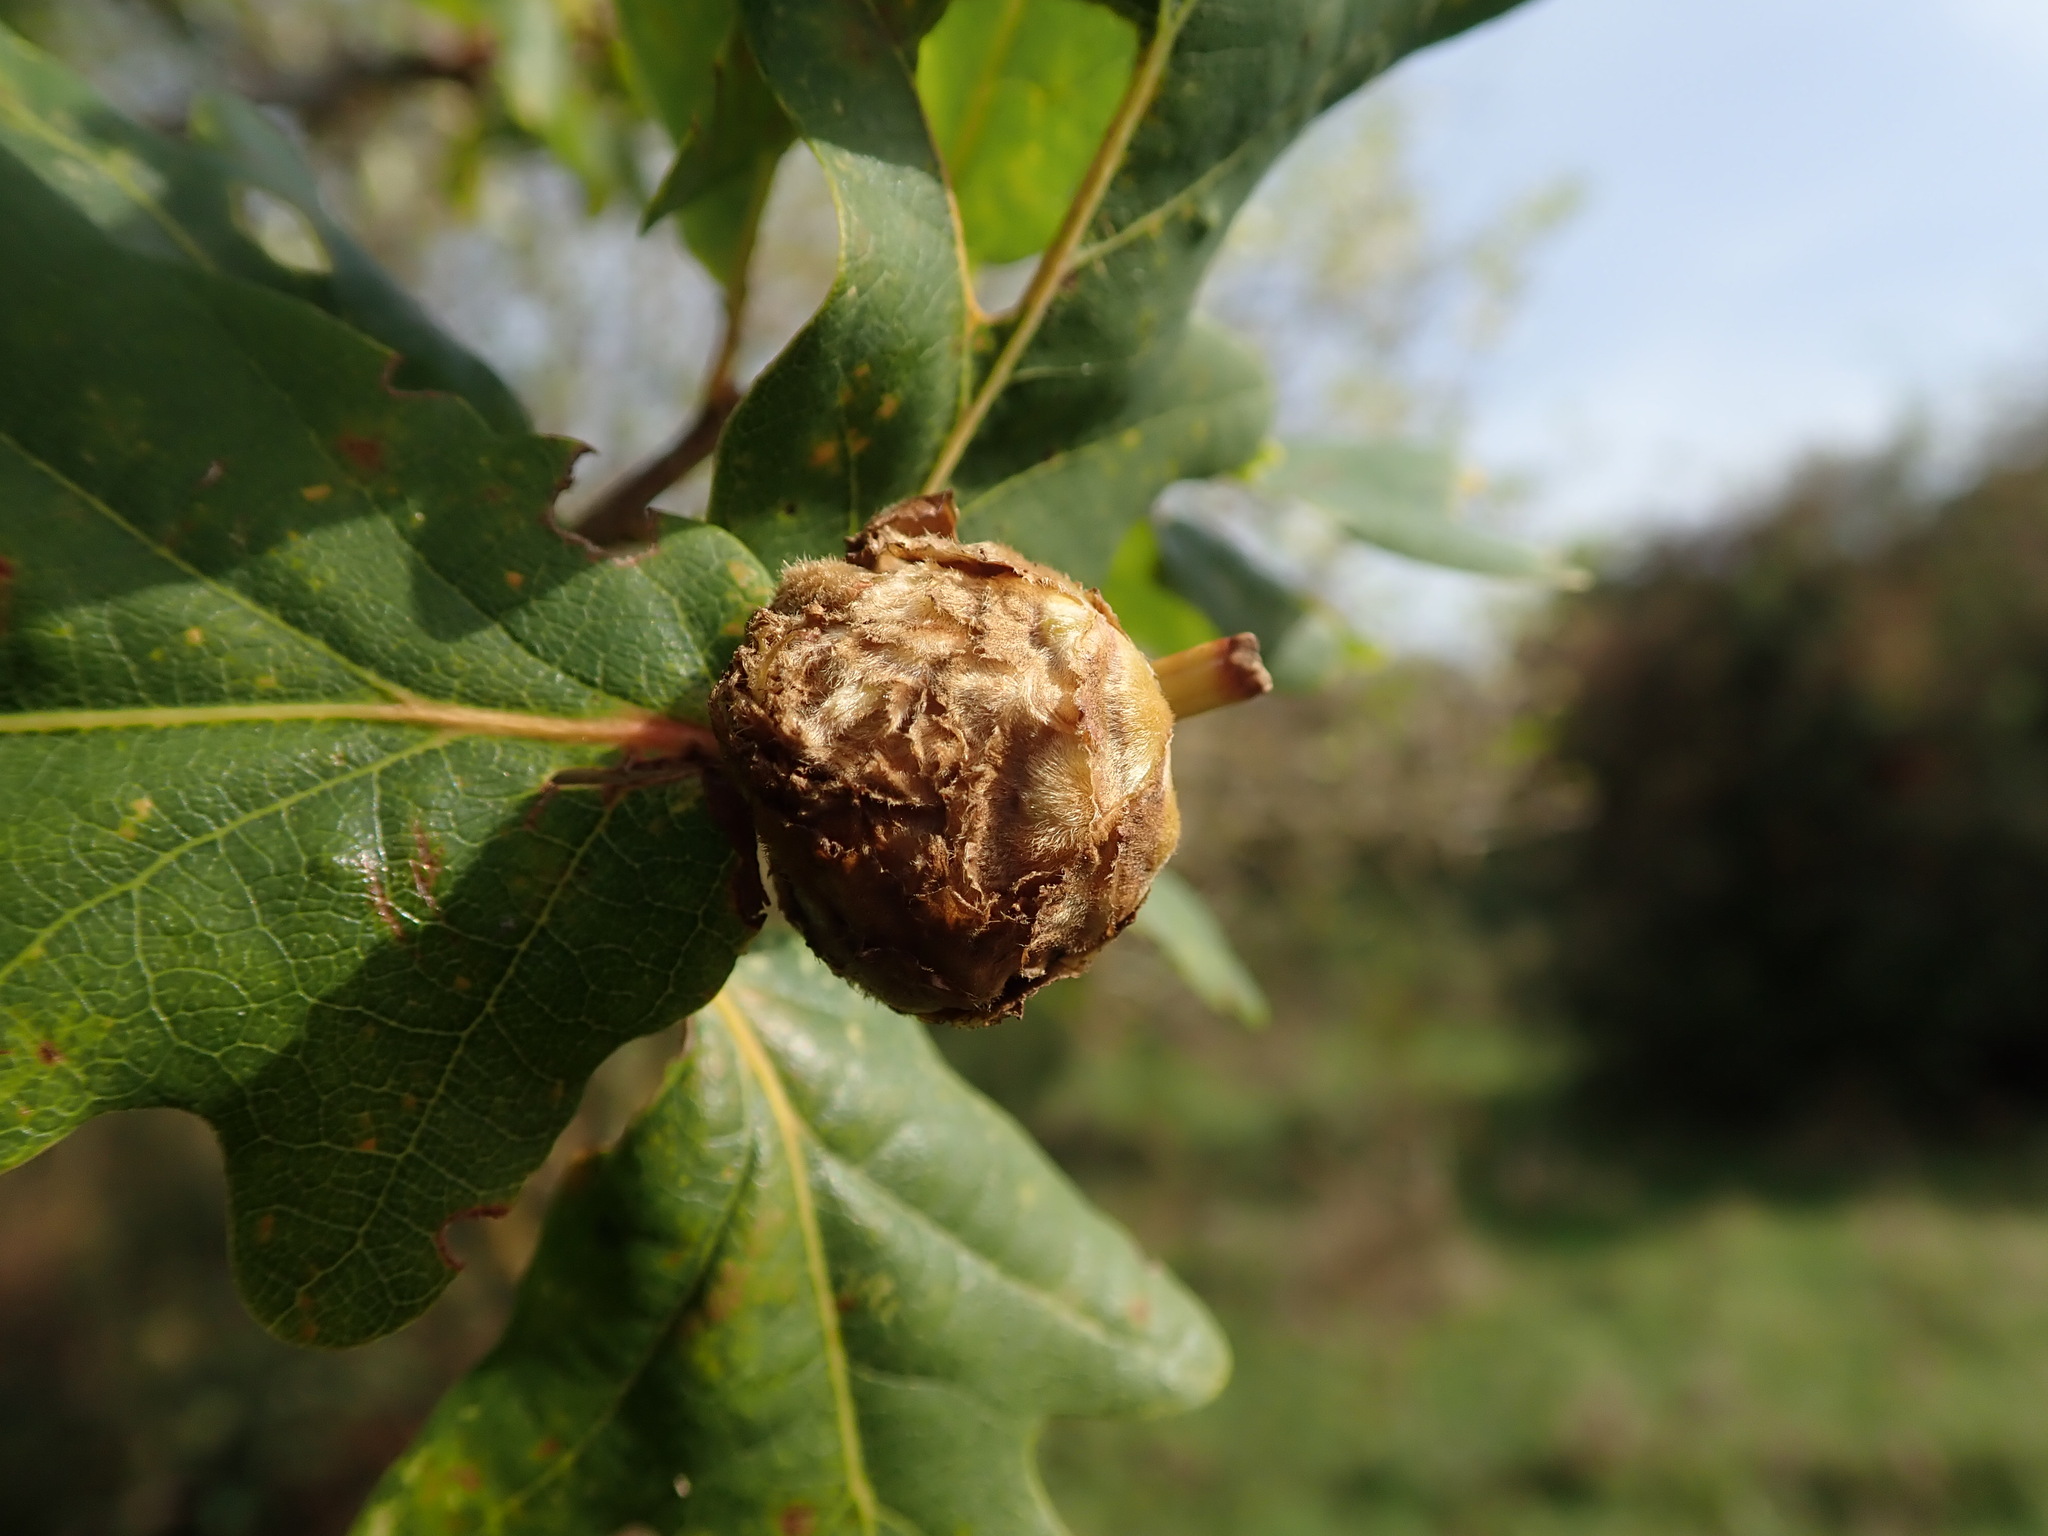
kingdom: Animalia
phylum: Arthropoda
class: Insecta
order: Hymenoptera
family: Cynipidae
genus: Andricus
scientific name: Andricus foecundatrix
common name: Artichoke gall
